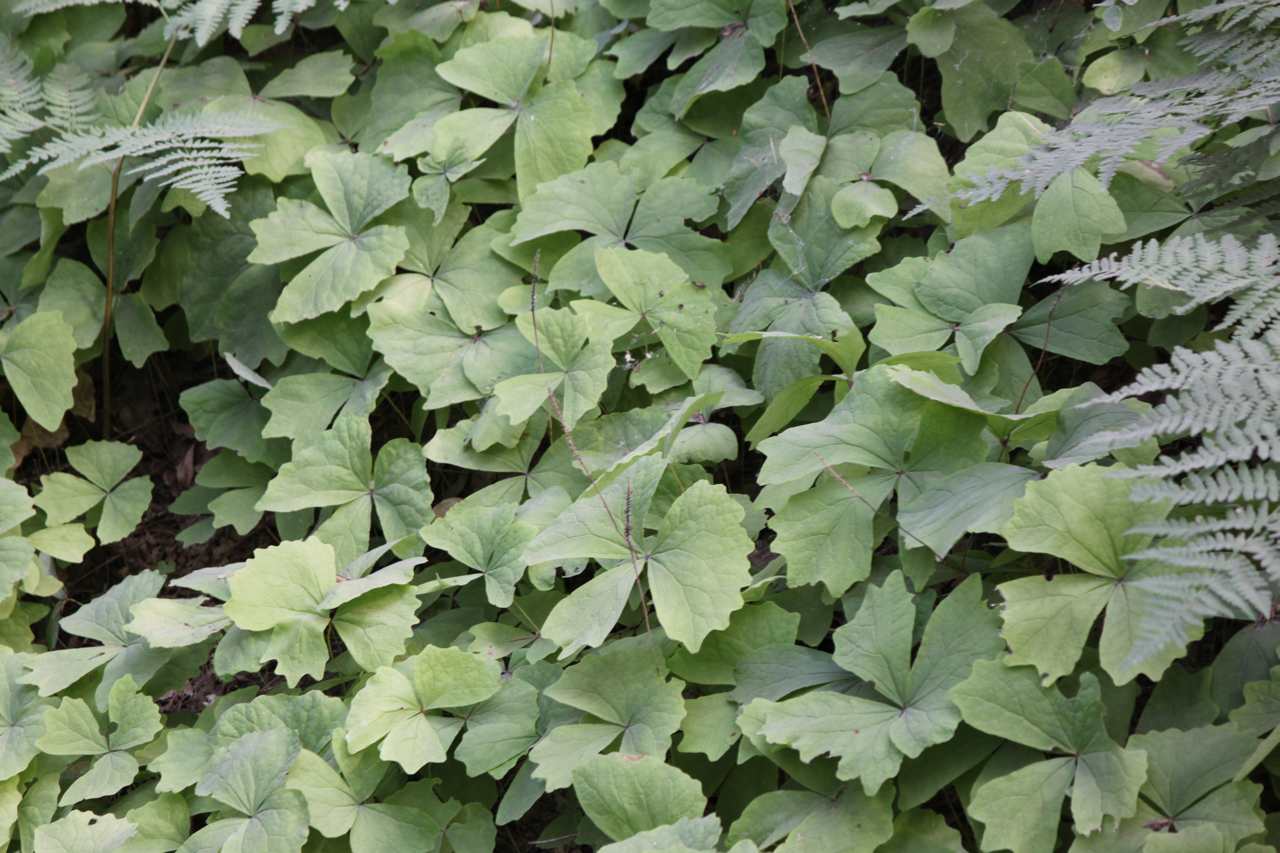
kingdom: Plantae
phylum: Tracheophyta
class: Magnoliopsida
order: Ranunculales
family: Berberidaceae
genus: Achlys
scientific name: Achlys triphylla
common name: Vanilla-leaf
